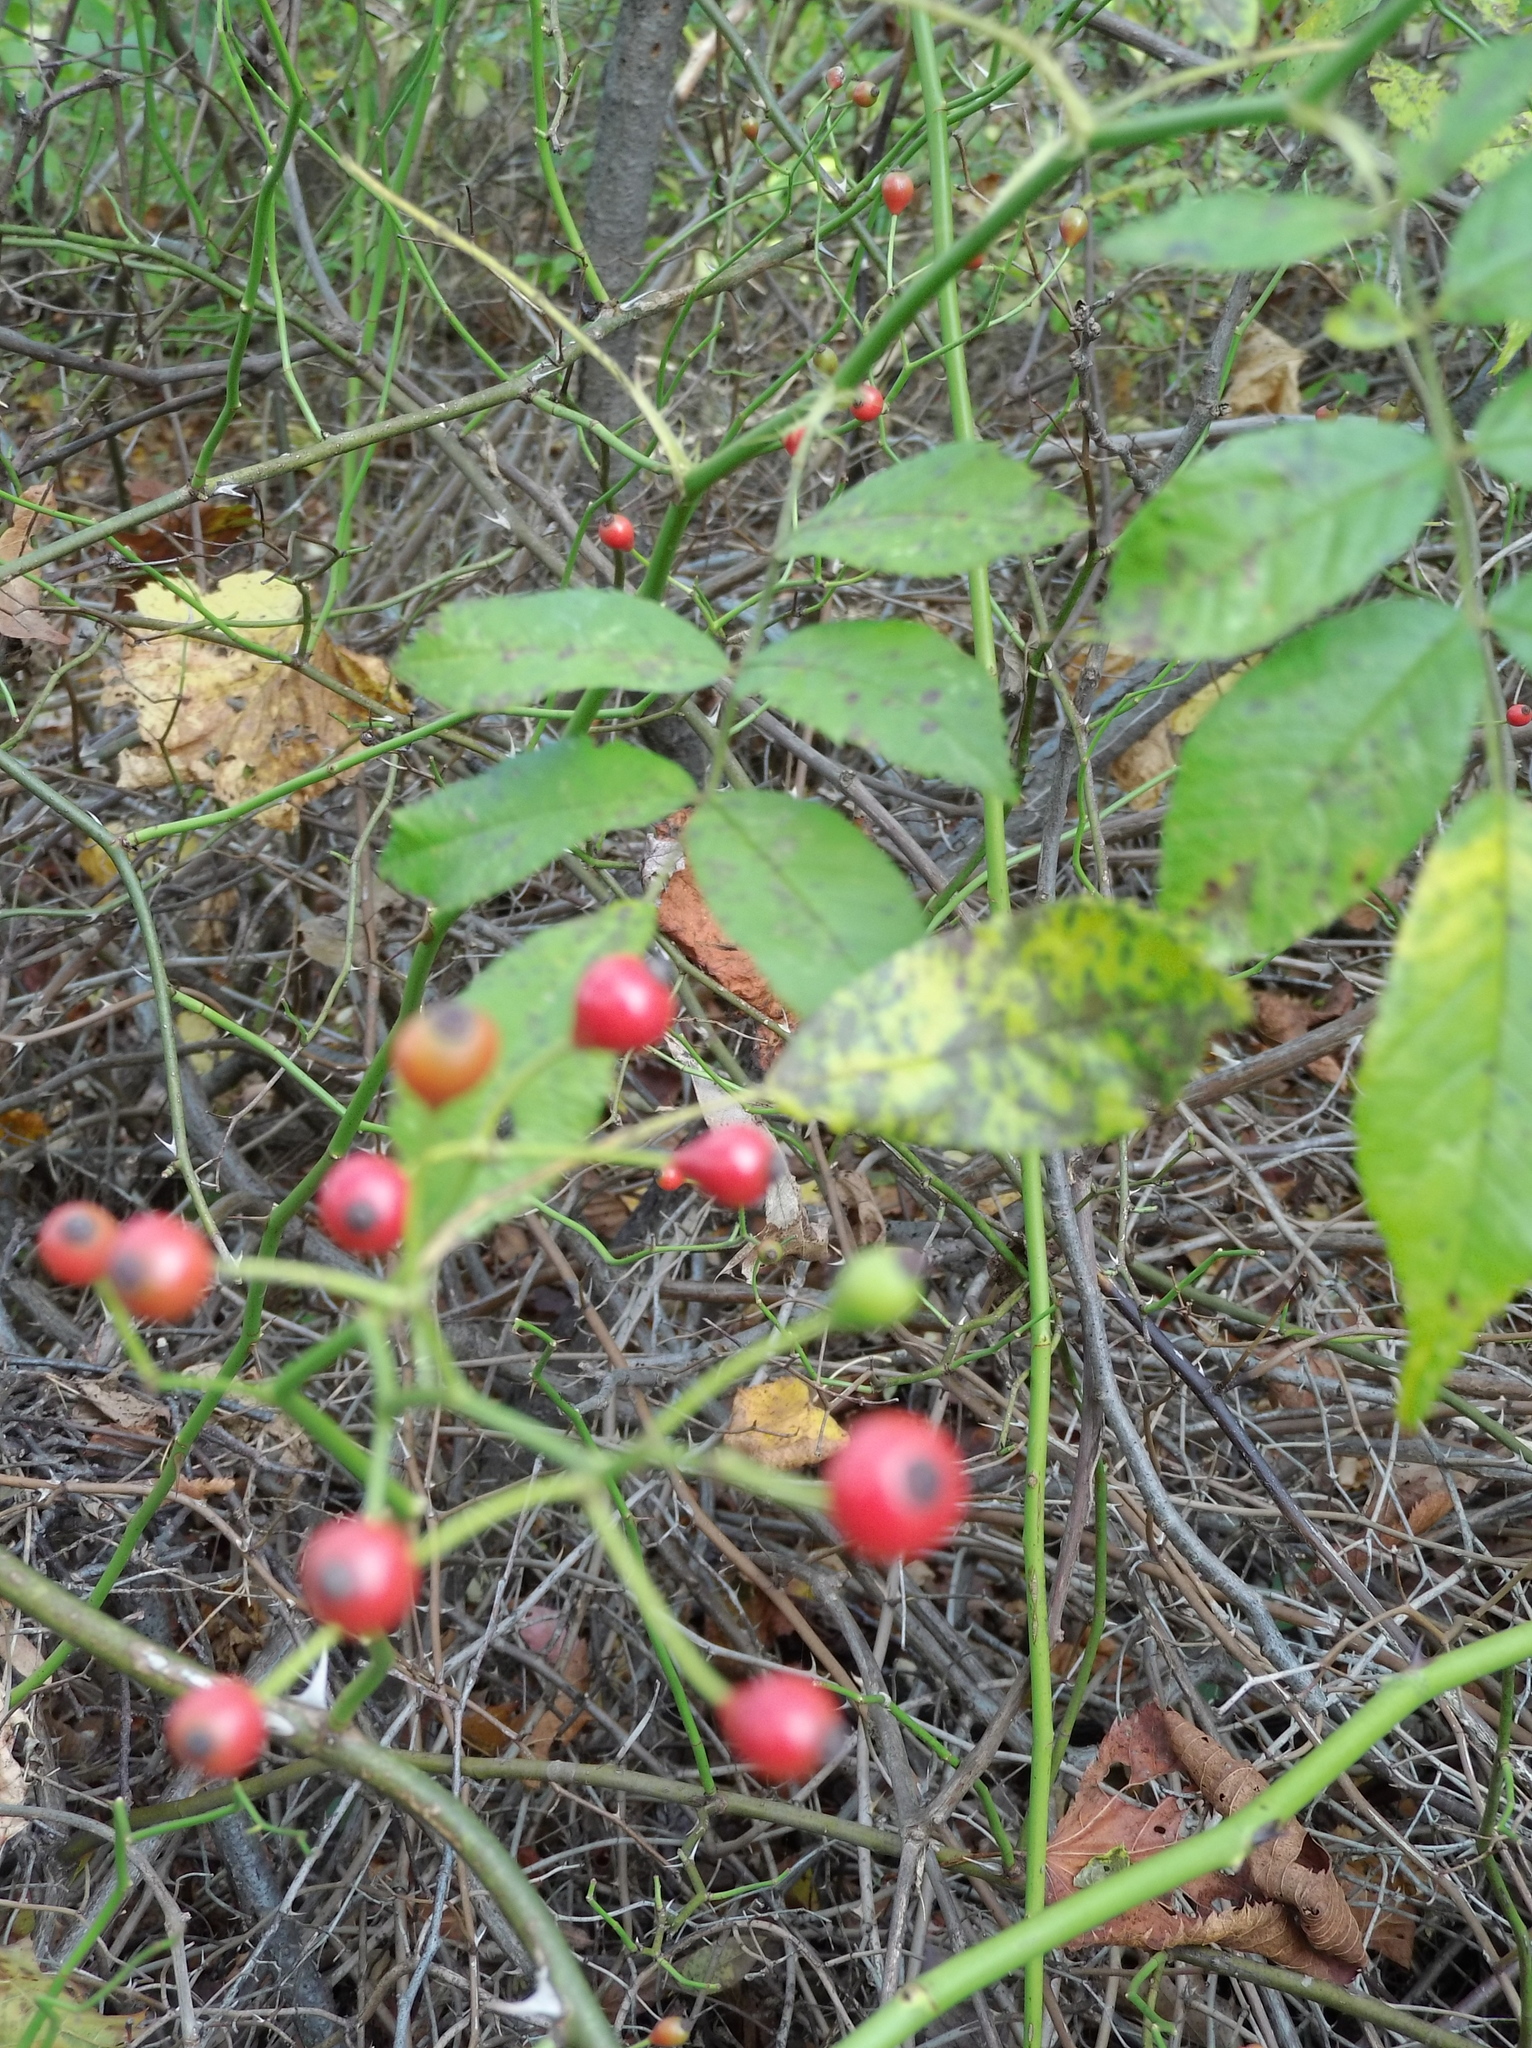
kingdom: Plantae
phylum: Tracheophyta
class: Magnoliopsida
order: Rosales
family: Rosaceae
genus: Rosa
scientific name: Rosa multiflora
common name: Multiflora rose
